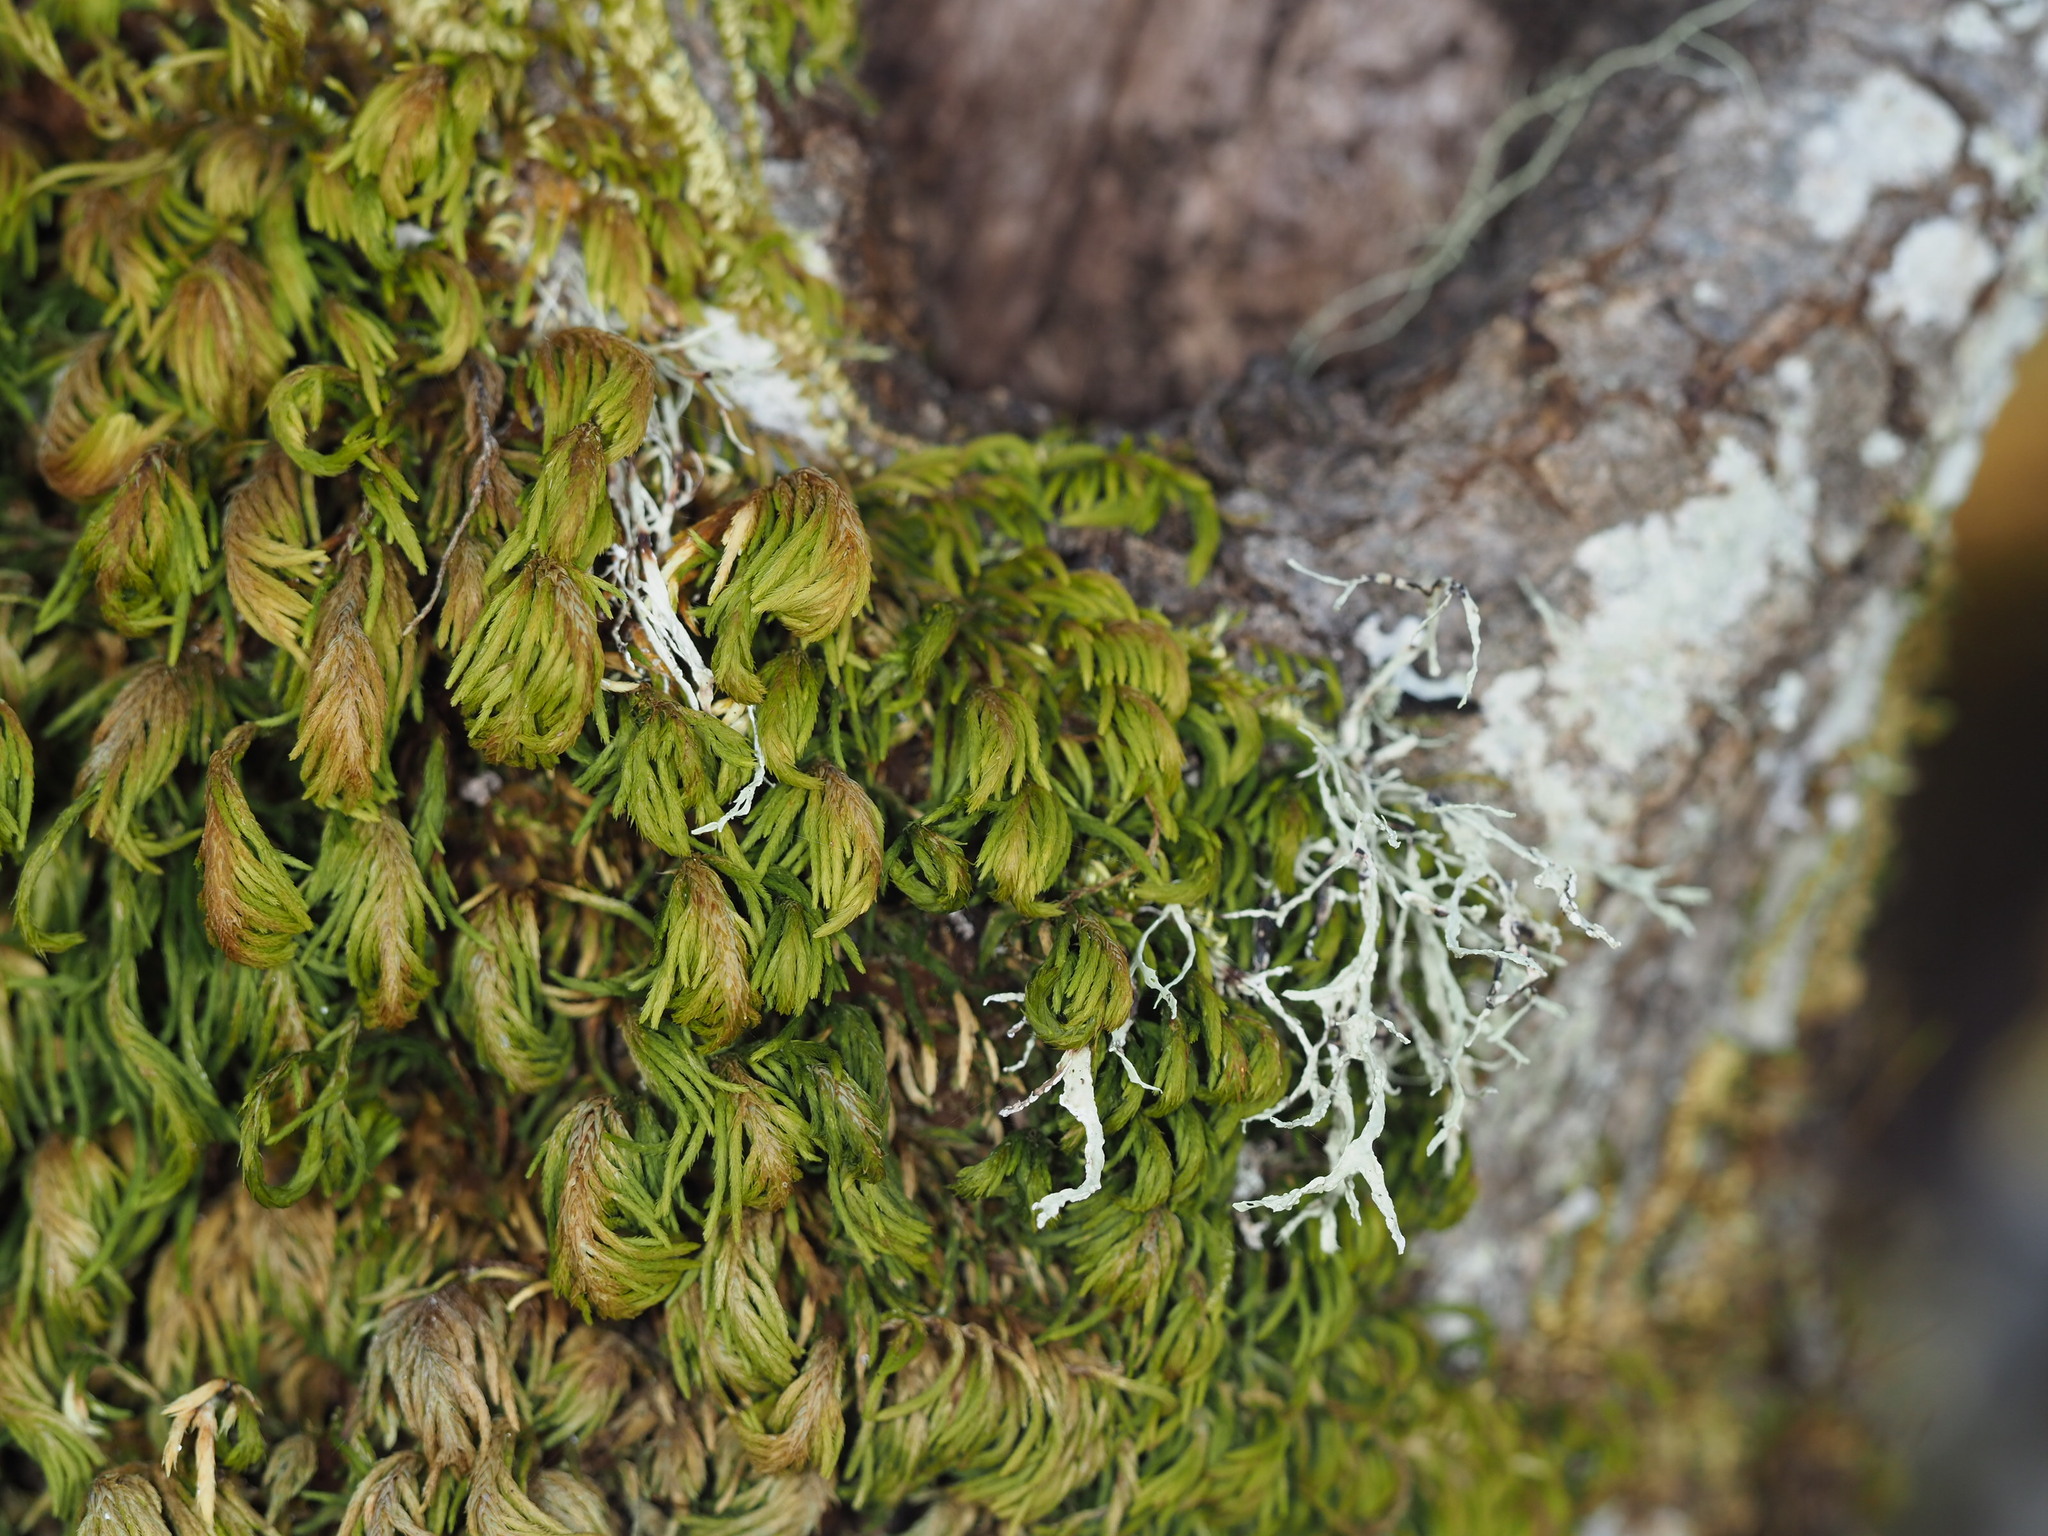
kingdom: Plantae
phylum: Bryophyta
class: Bryopsida
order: Hypnales
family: Cryphaeaceae
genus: Dendroalsia
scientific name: Dendroalsia abietina
